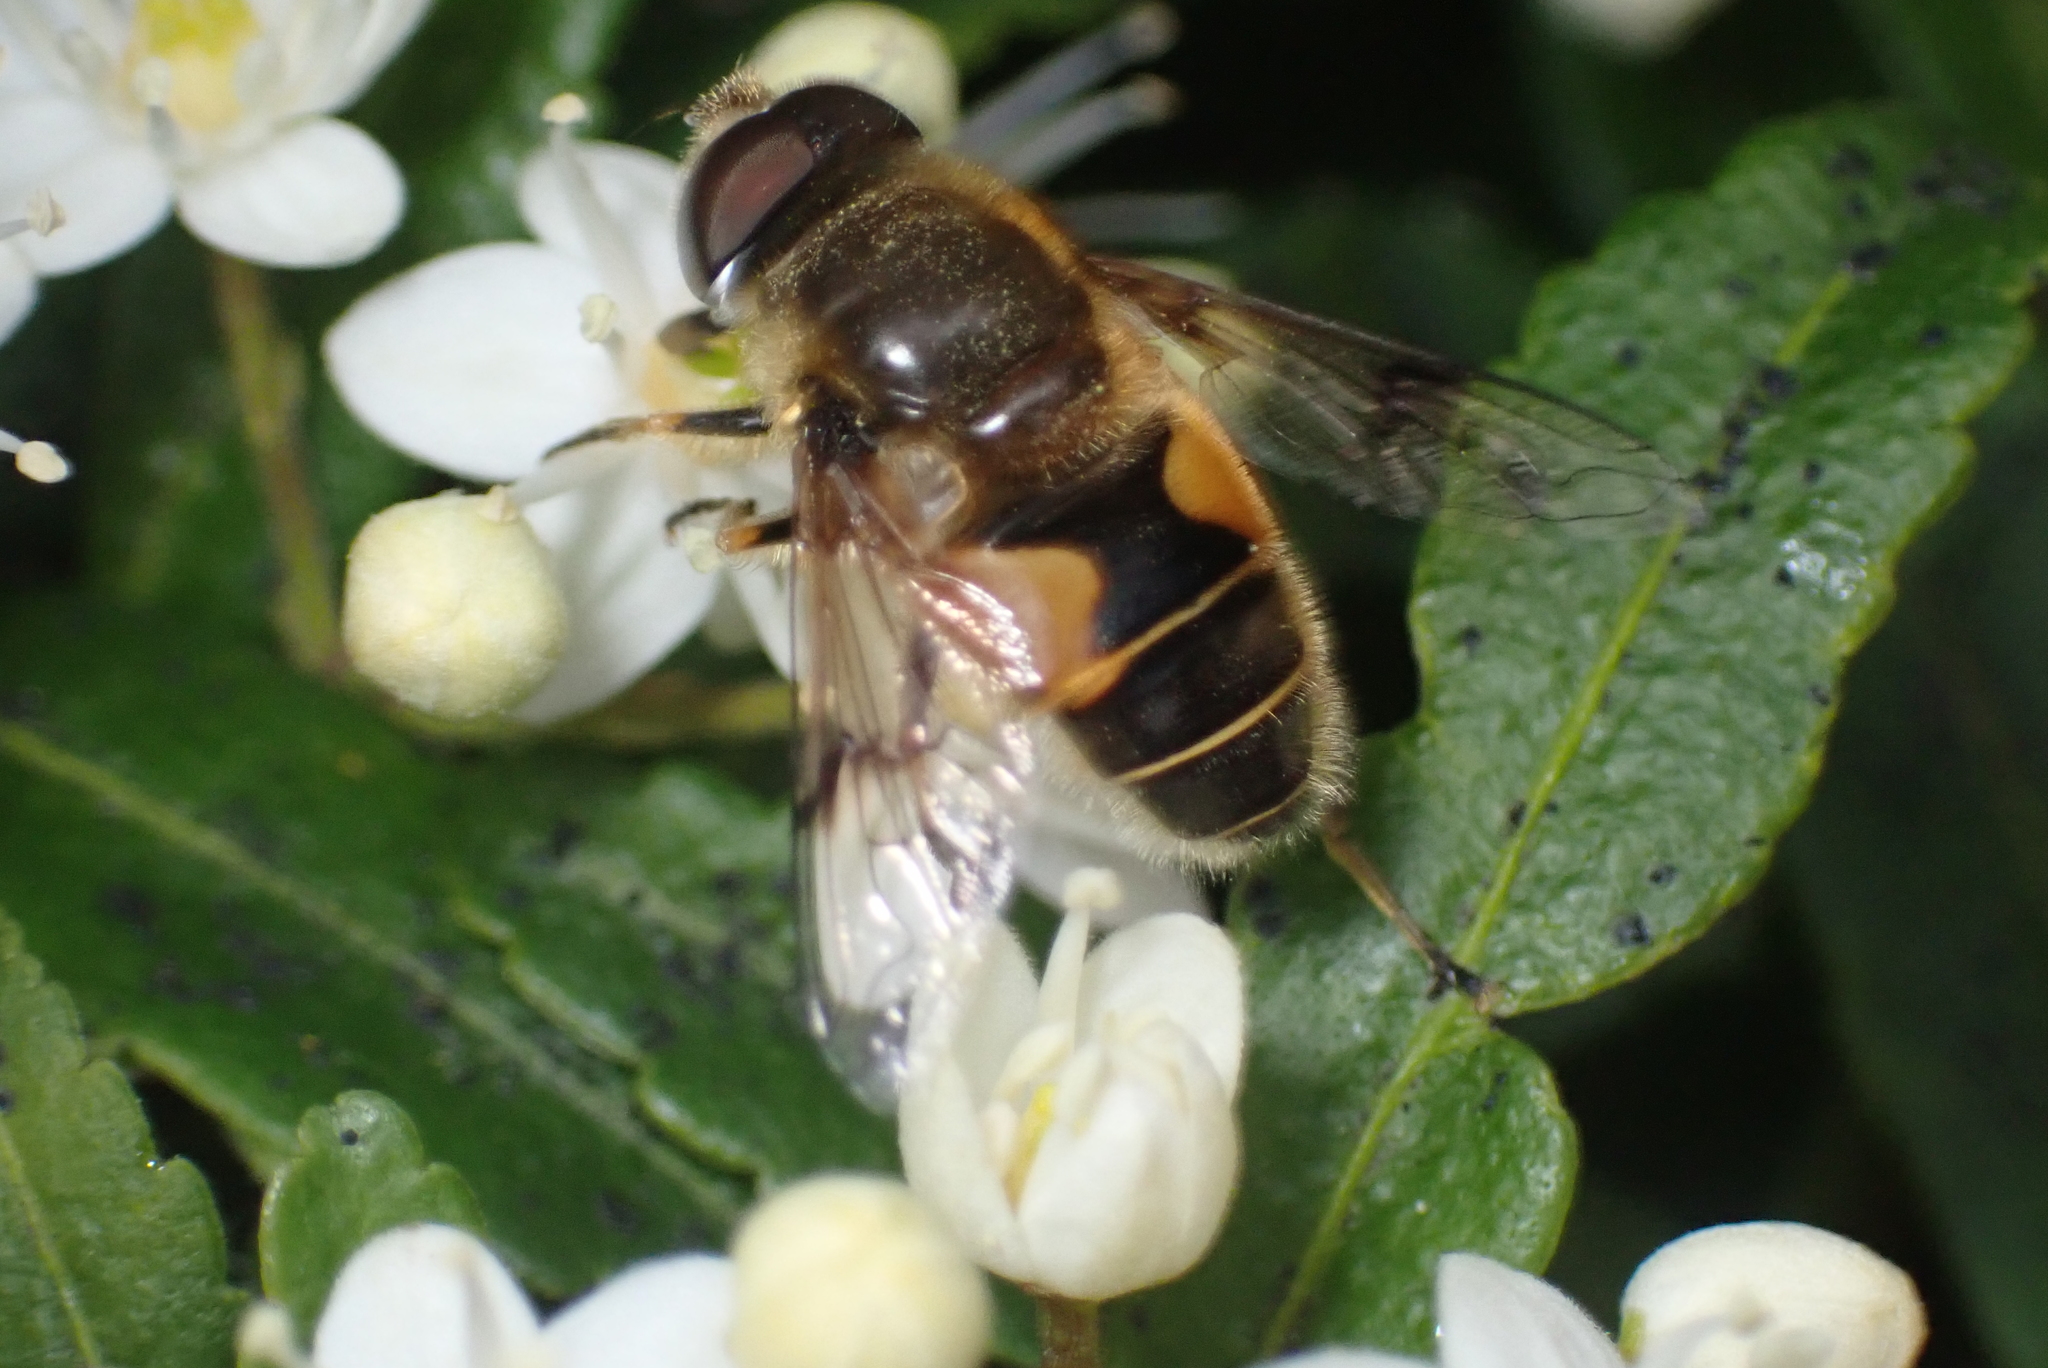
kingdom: Animalia
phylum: Arthropoda
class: Insecta
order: Diptera
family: Syrphidae
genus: Cheilosia
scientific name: Cheilosia morio
